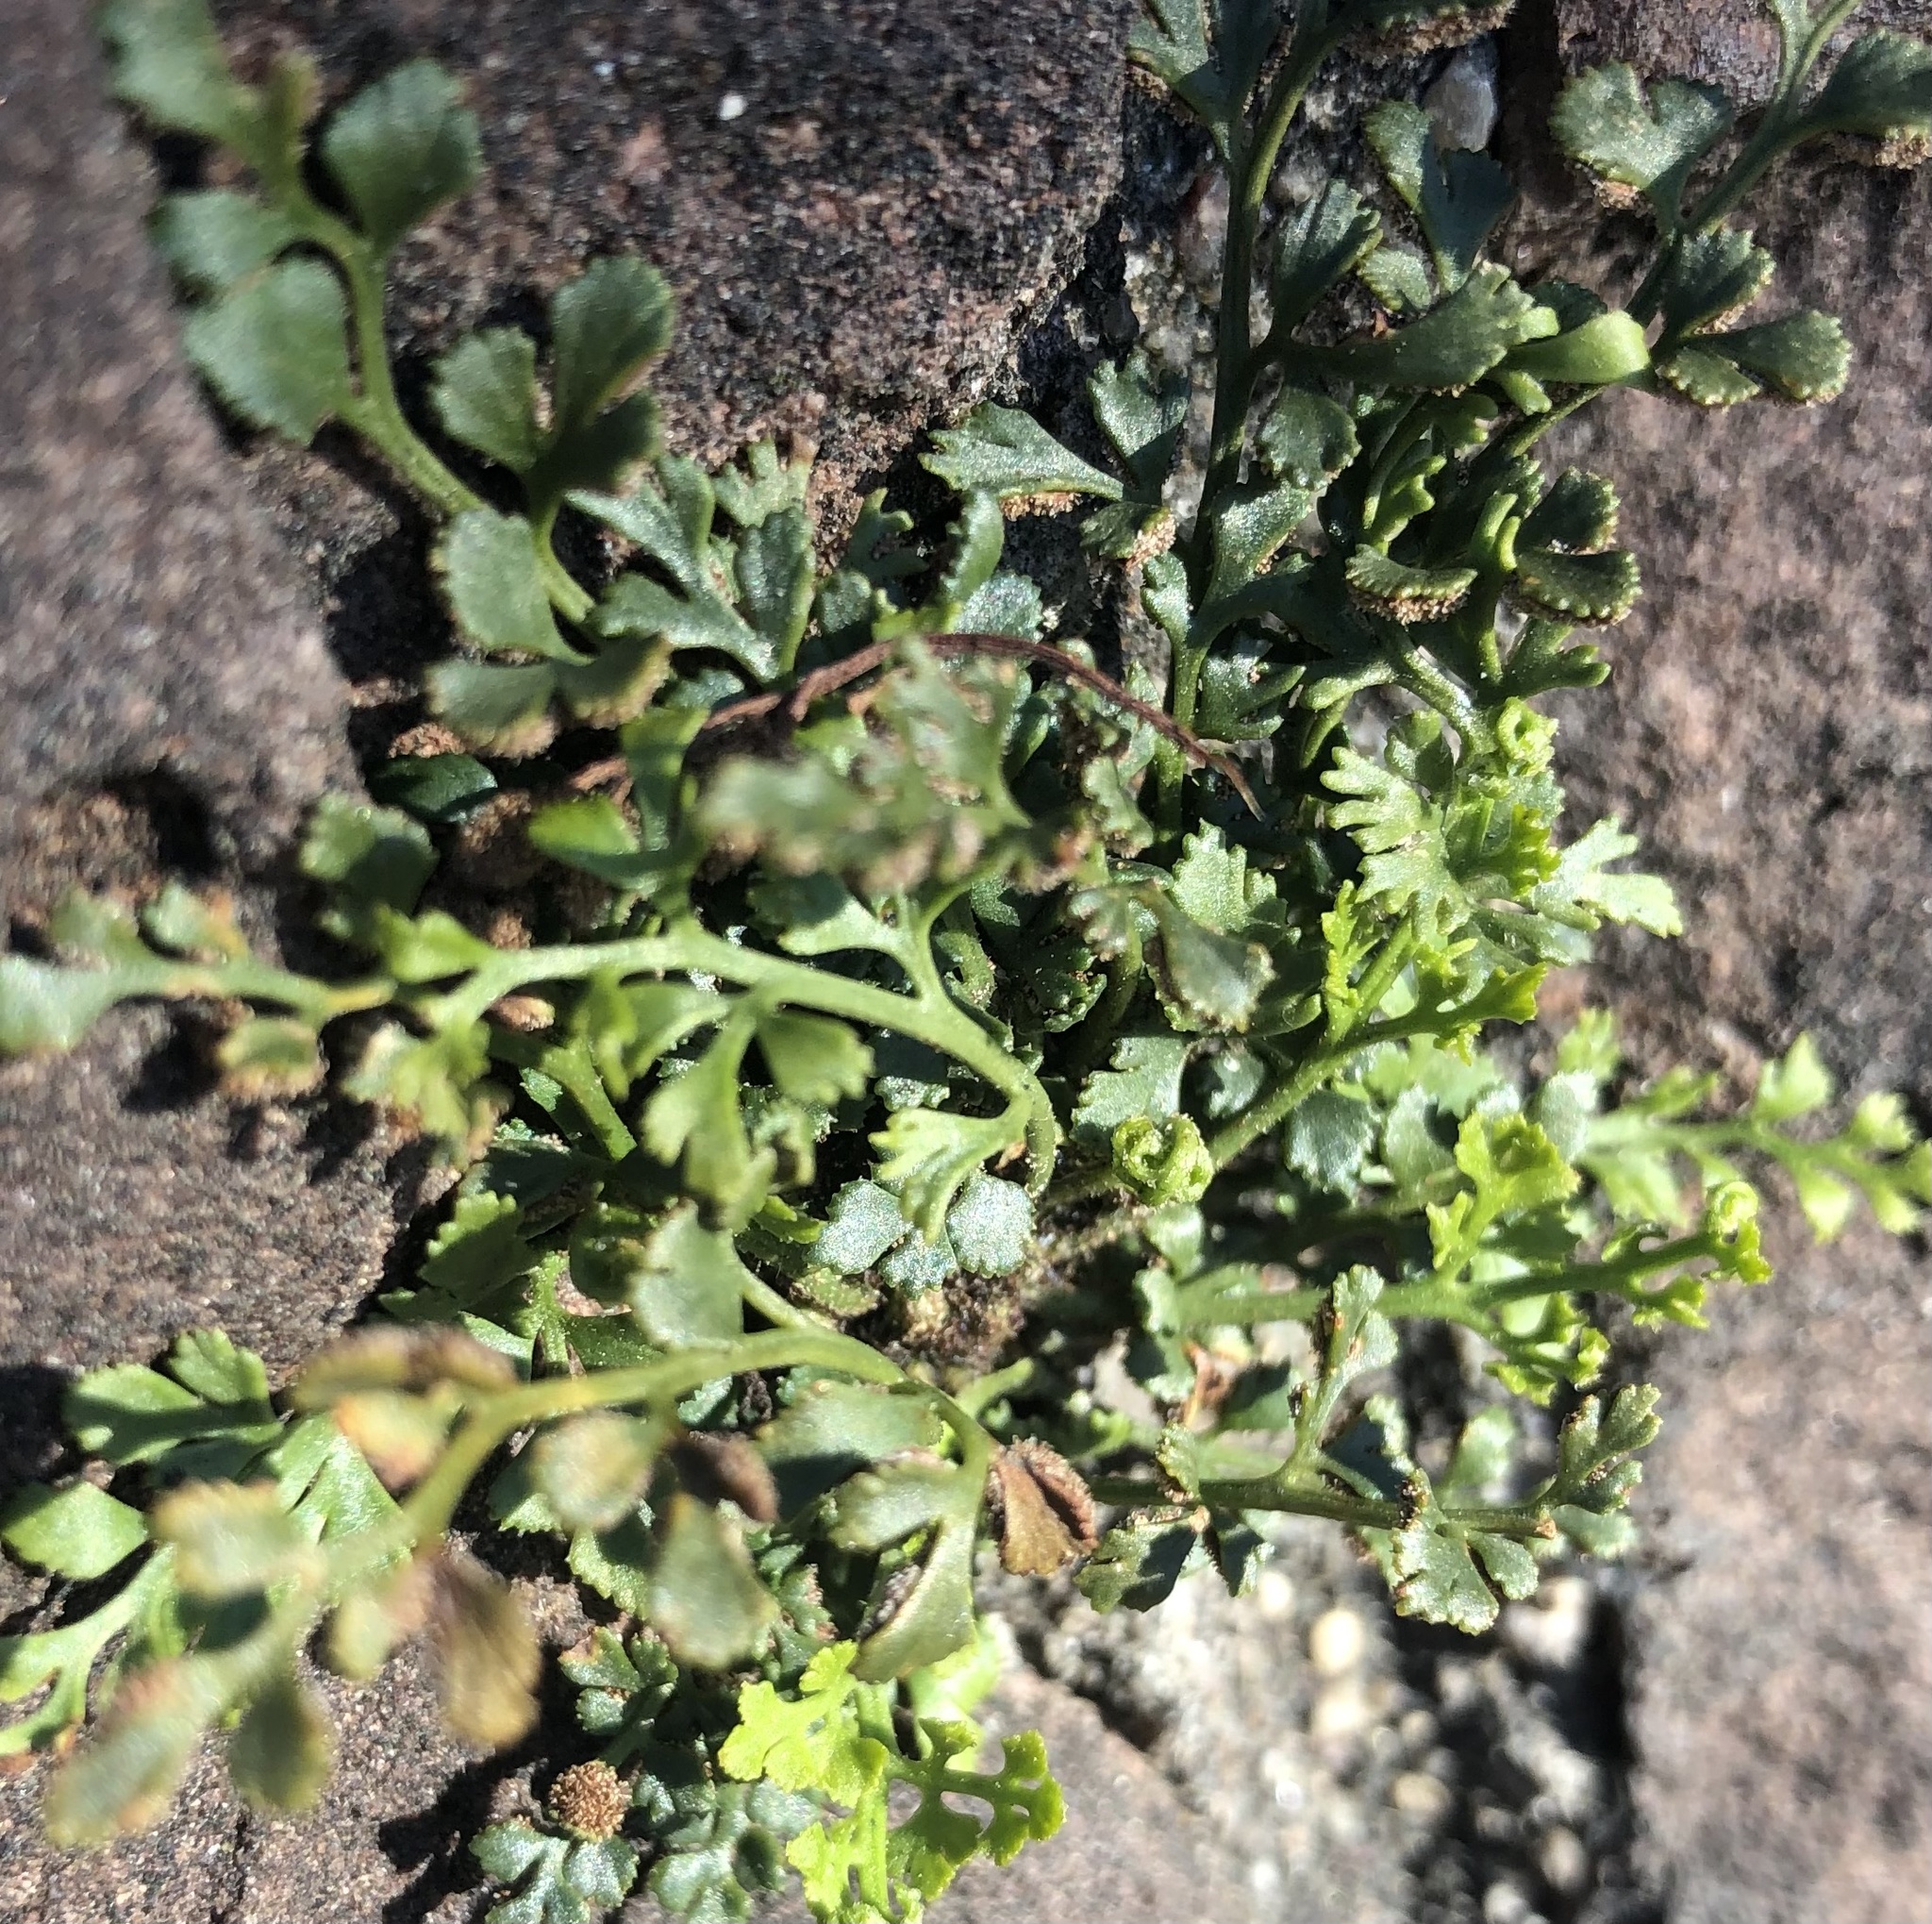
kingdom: Plantae
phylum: Tracheophyta
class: Polypodiopsida
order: Polypodiales
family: Aspleniaceae
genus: Asplenium
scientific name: Asplenium ruta-muraria
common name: Wall-rue
